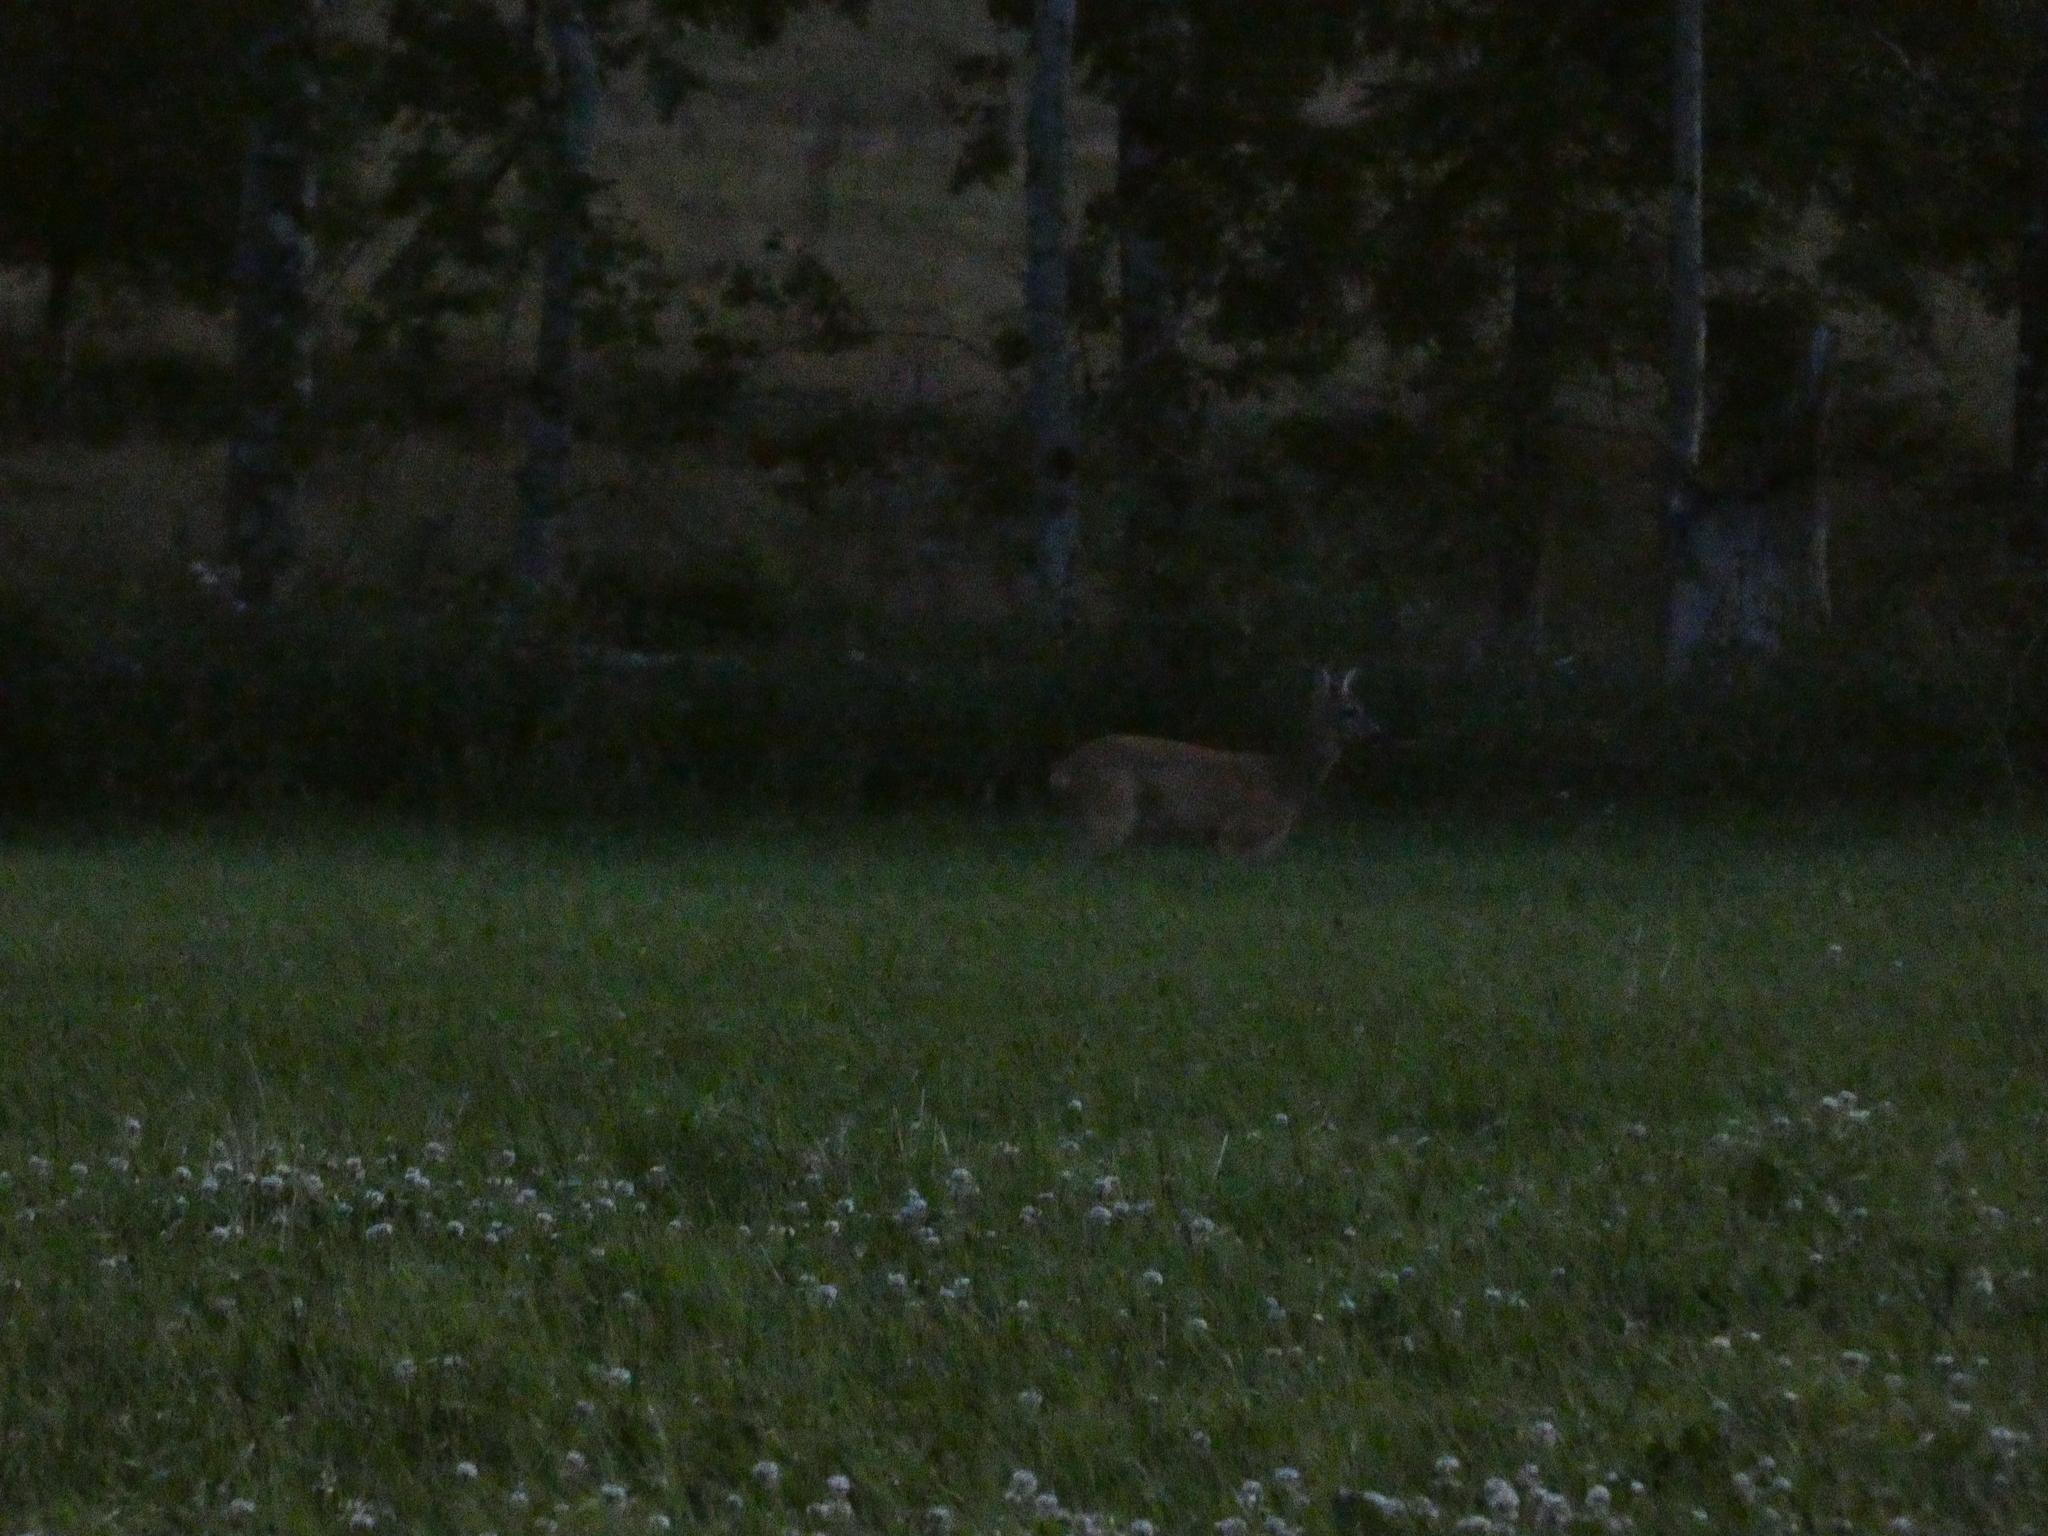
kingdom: Animalia
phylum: Chordata
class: Mammalia
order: Artiodactyla
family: Cervidae
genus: Capreolus
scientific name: Capreolus capreolus
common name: Western roe deer
